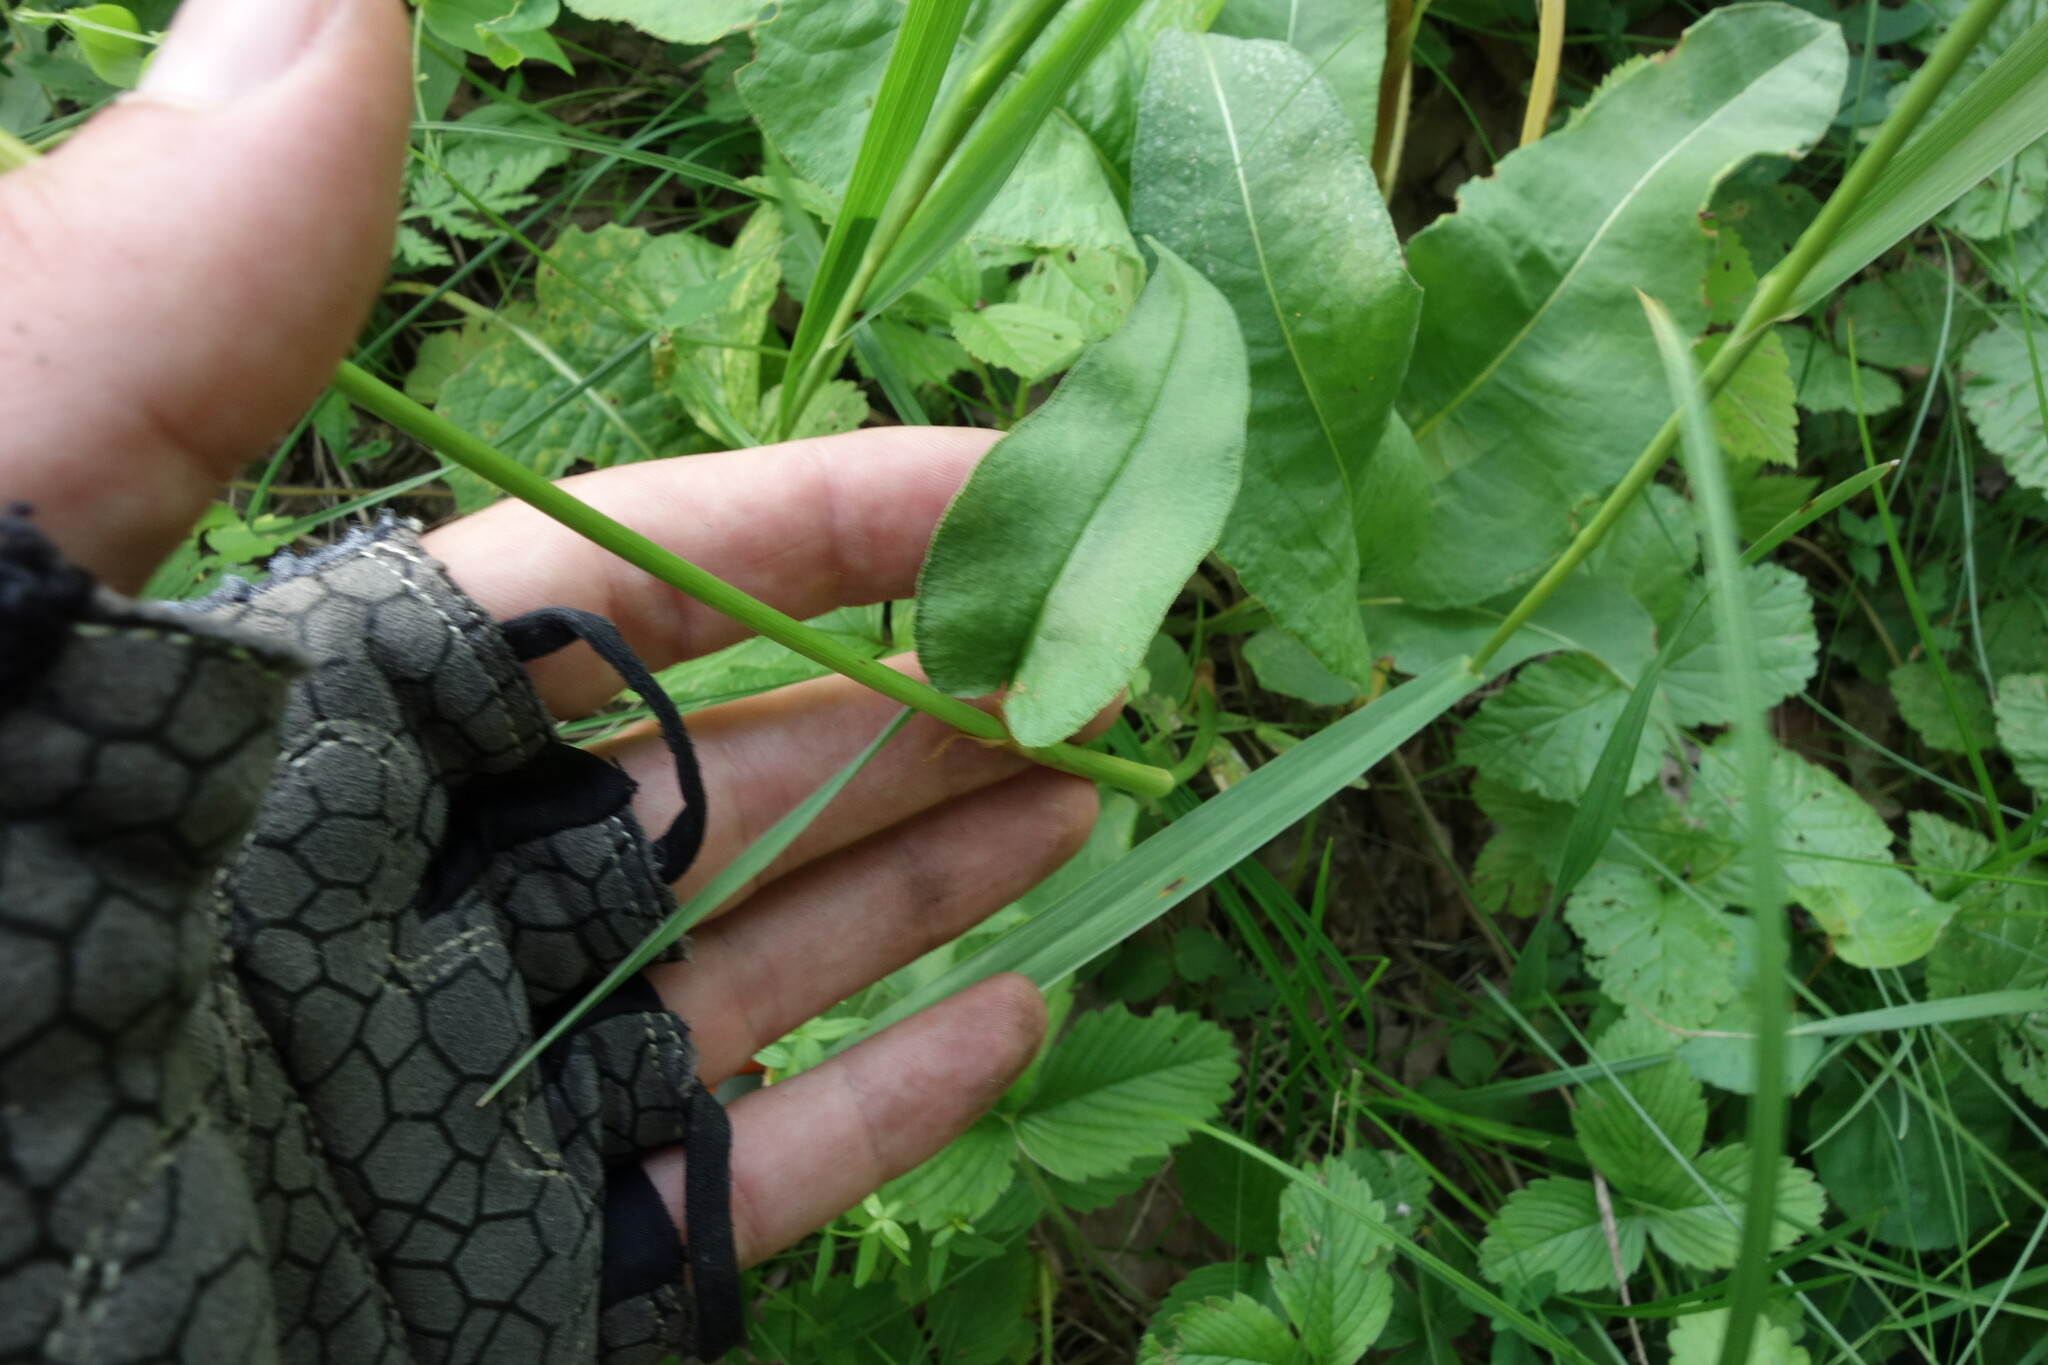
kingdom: Plantae
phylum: Tracheophyta
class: Magnoliopsida
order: Caryophyllales
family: Polygonaceae
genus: Bistorta
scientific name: Bistorta officinalis
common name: Common bistort
